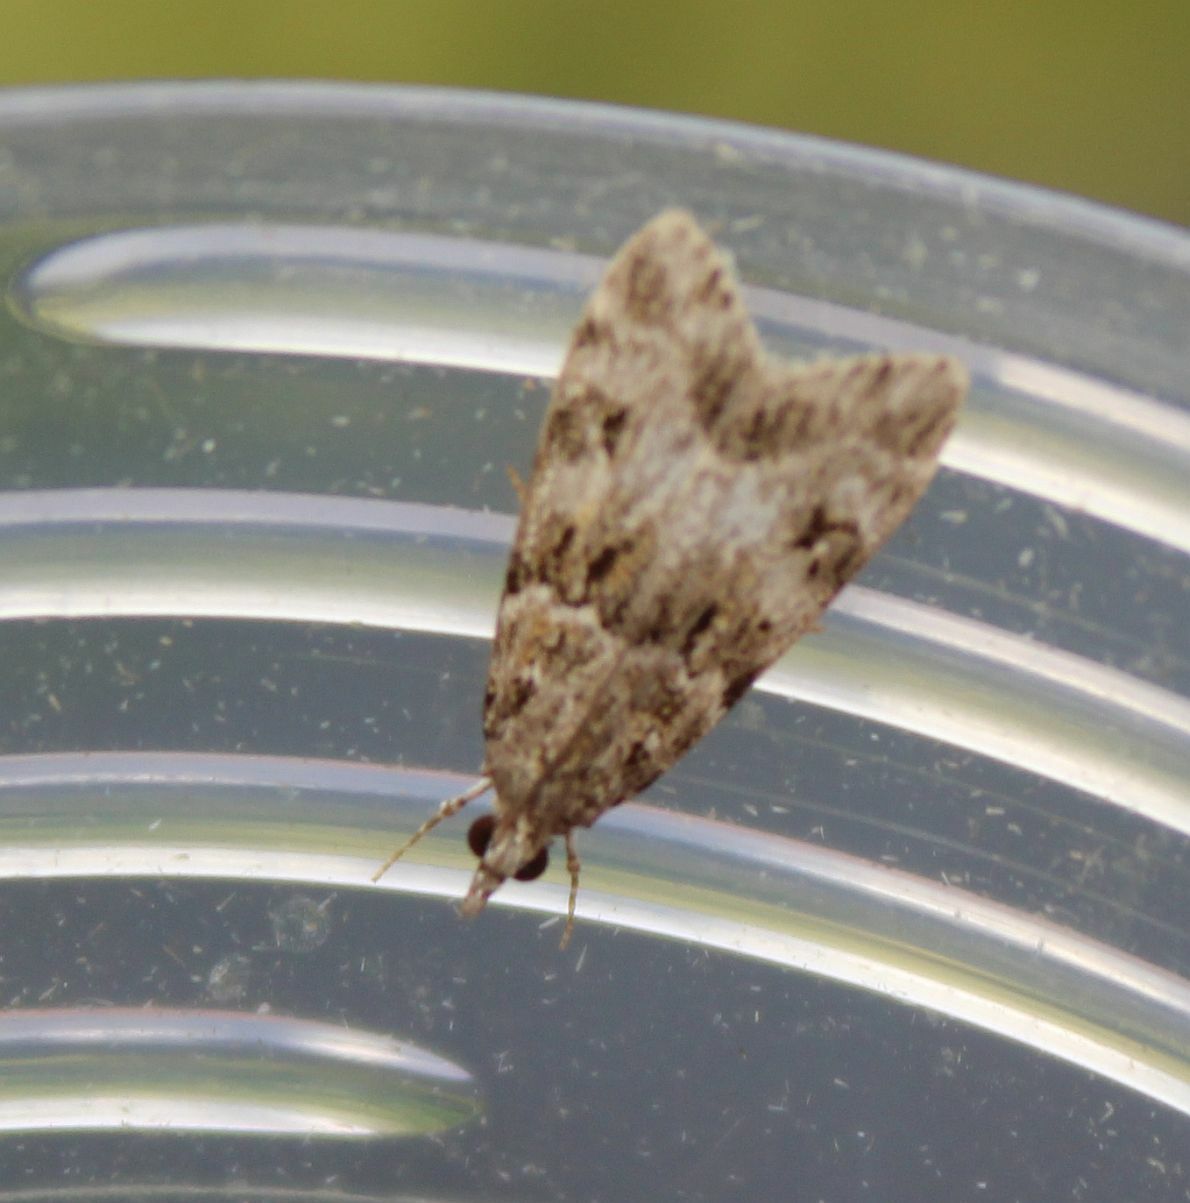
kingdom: Animalia
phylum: Arthropoda
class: Insecta
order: Lepidoptera
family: Crambidae
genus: Eudonia
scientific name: Eudonia mercurella
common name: Small grey
